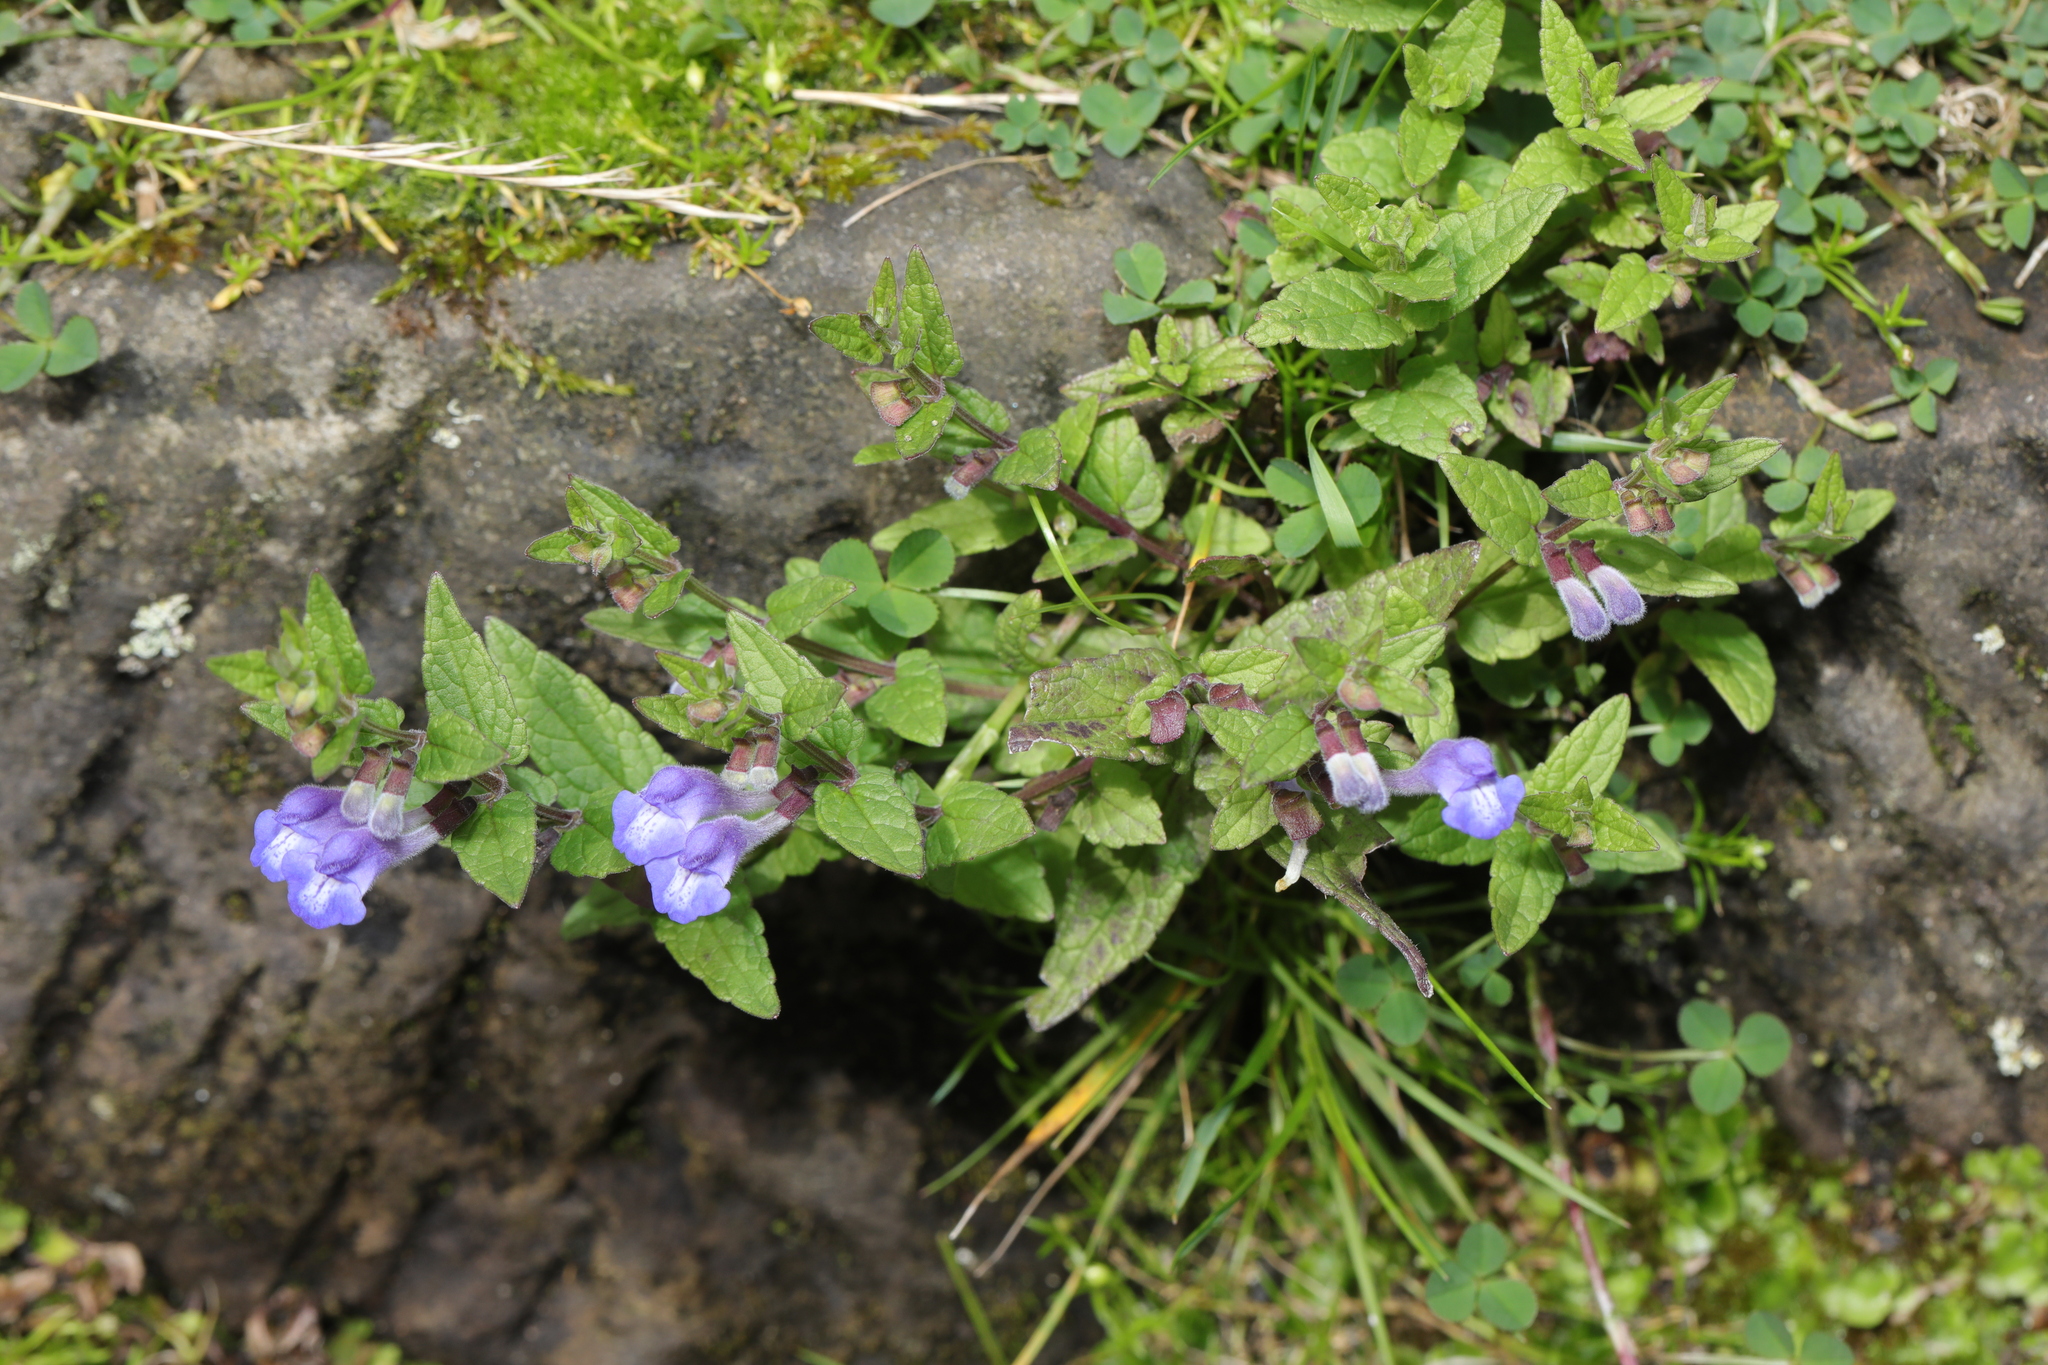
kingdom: Plantae
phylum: Tracheophyta
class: Magnoliopsida
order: Lamiales
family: Lamiaceae
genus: Scutellaria
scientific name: Scutellaria galericulata
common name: Skullcap
